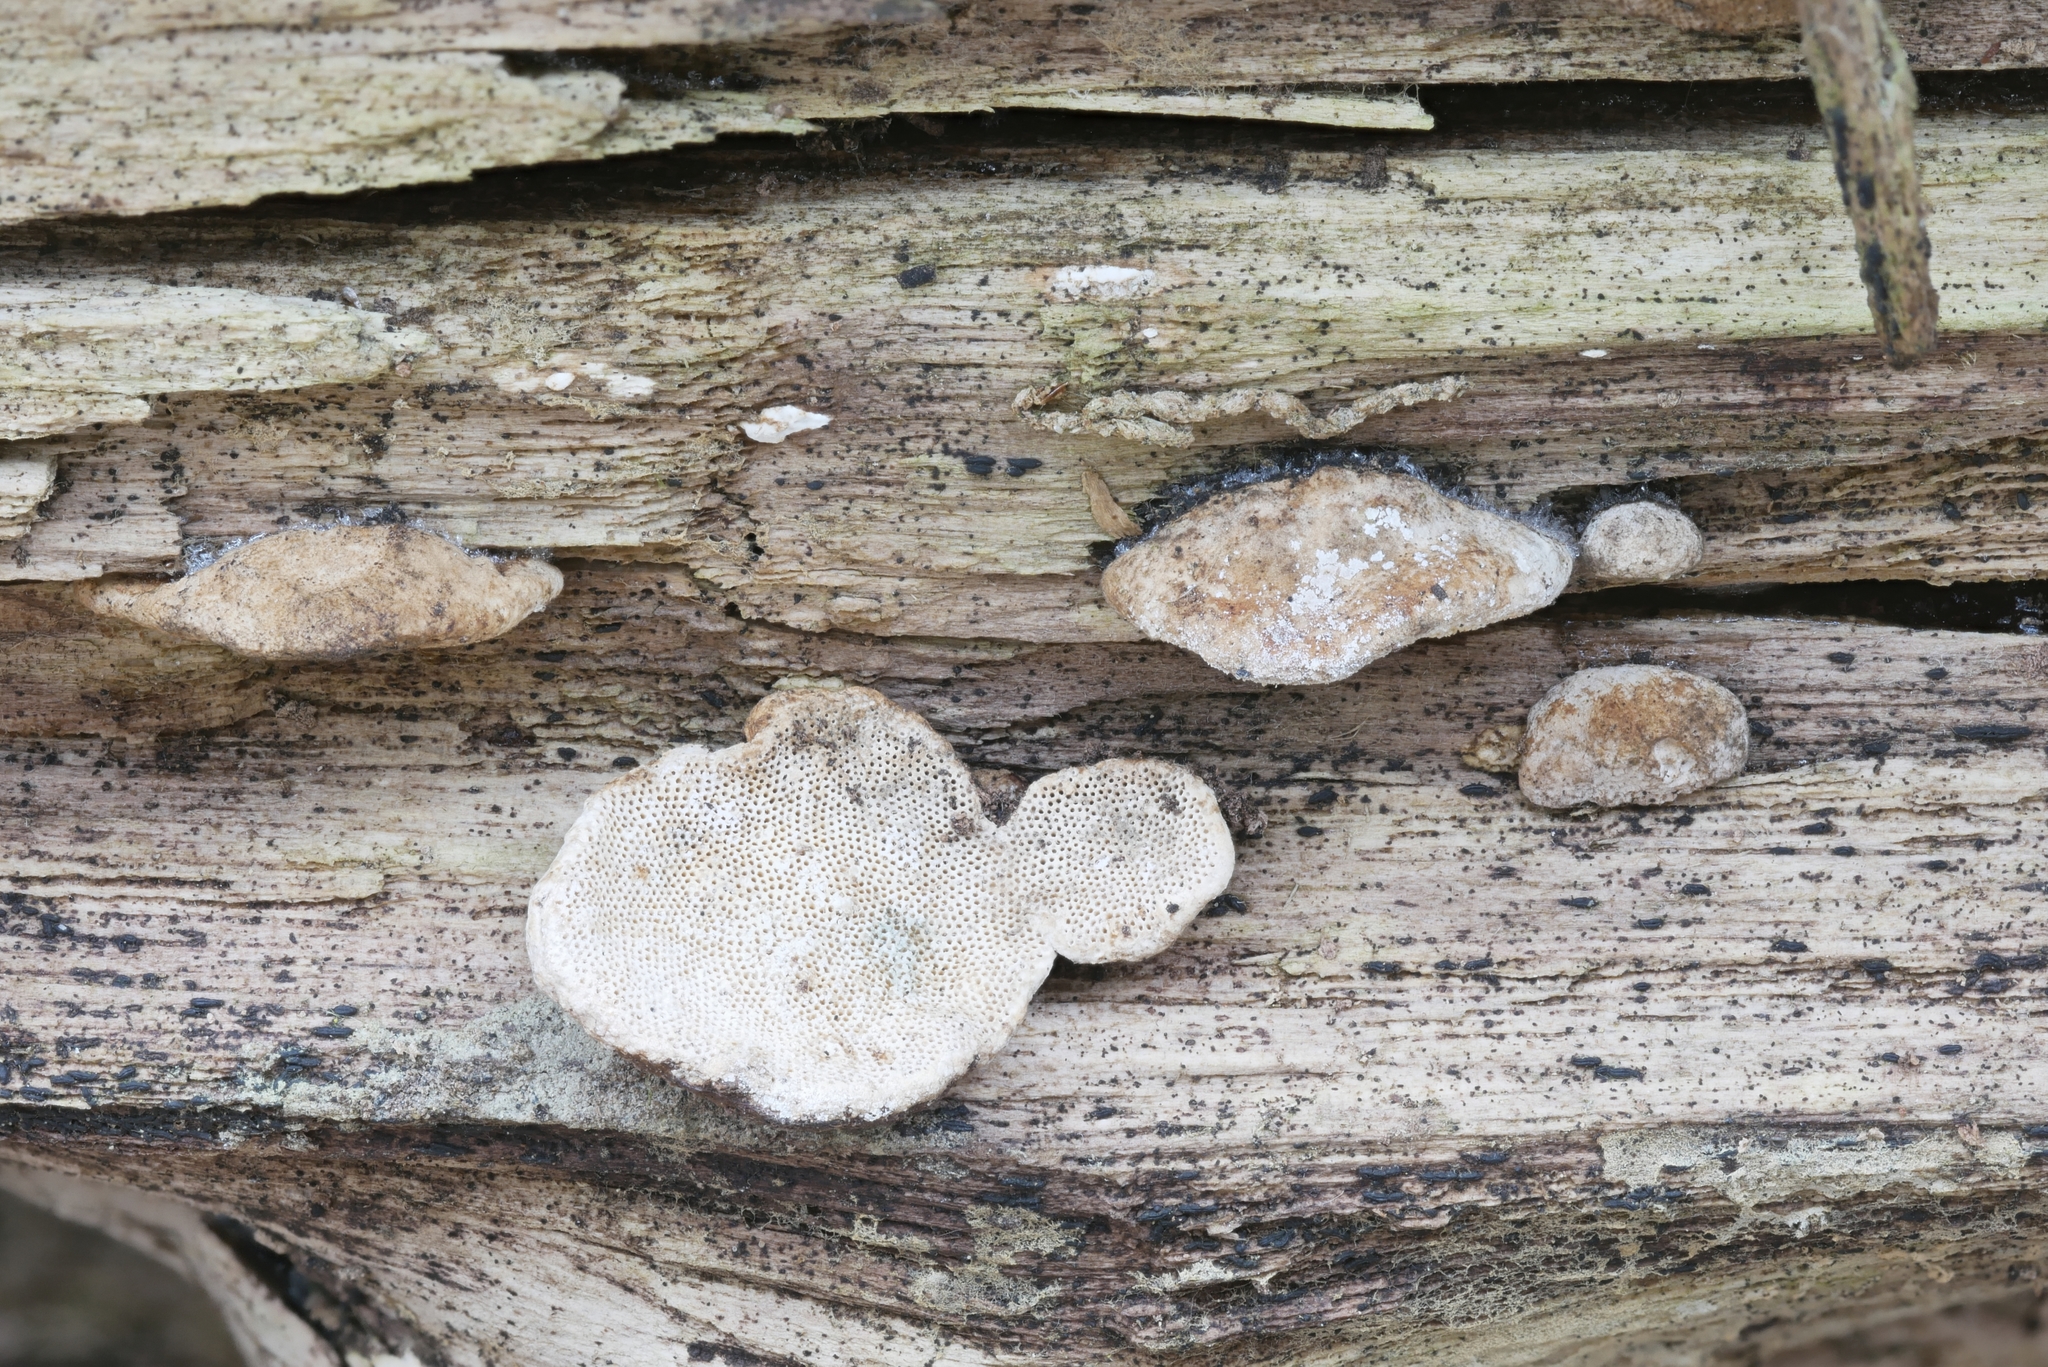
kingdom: Fungi
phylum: Basidiomycota
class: Agaricomycetes
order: Polyporales
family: Polyporaceae
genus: Perenniporia
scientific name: Perenniporia ohiensis
